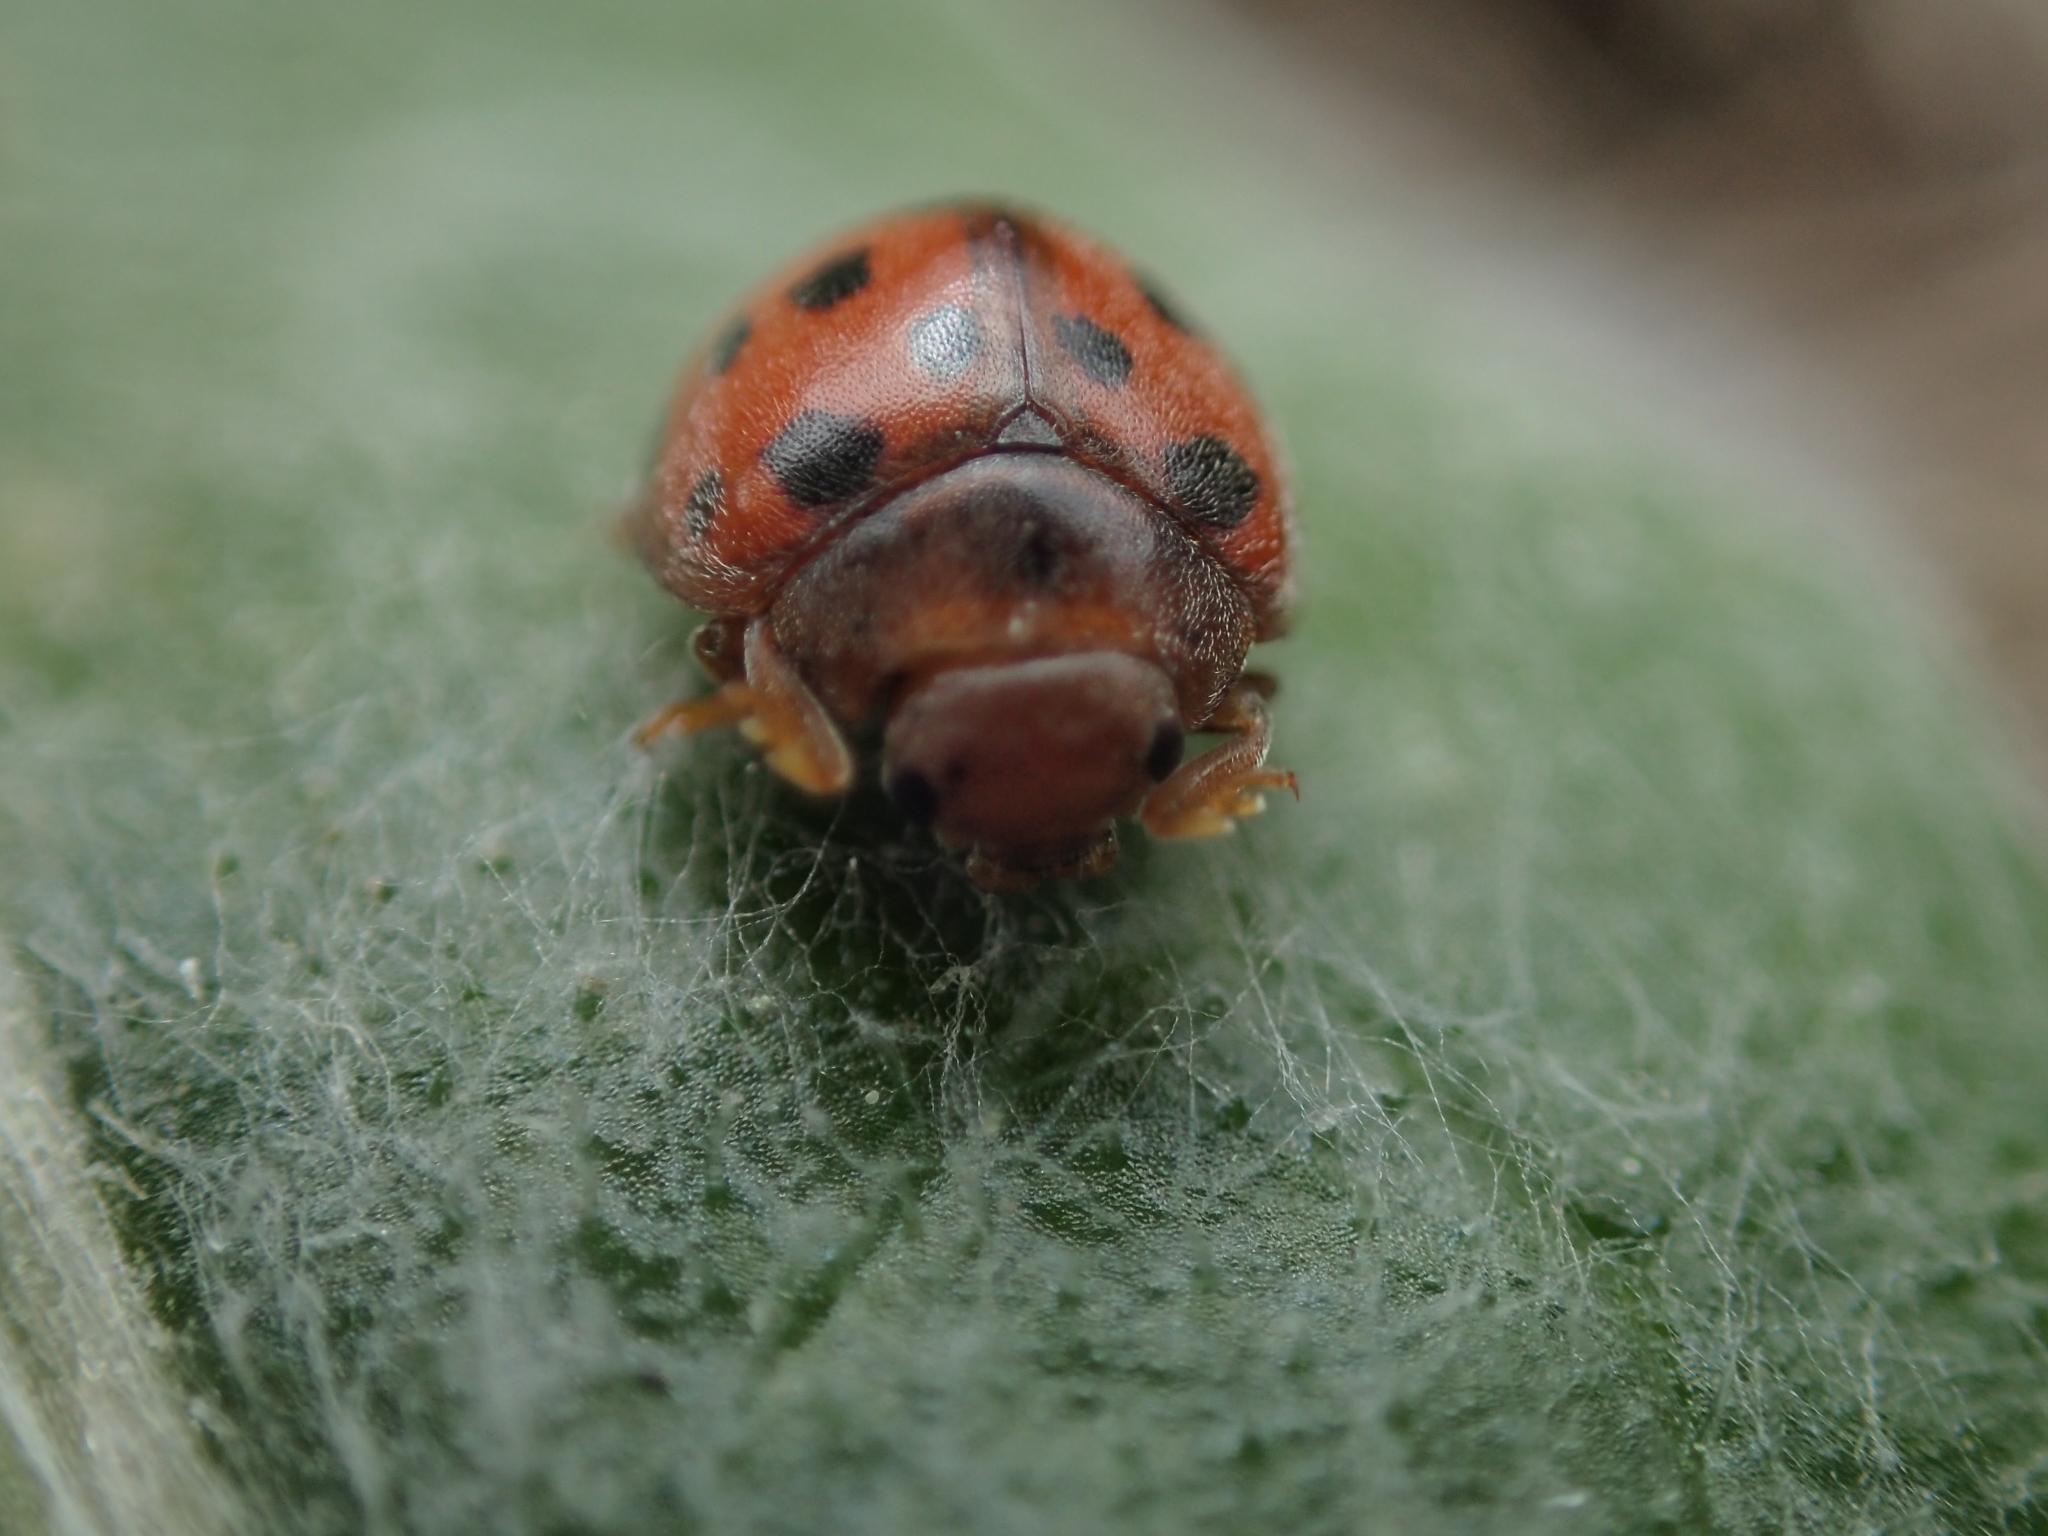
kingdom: Animalia
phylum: Arthropoda
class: Insecta
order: Coleoptera
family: Coccinellidae
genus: Subcoccinella
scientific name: Subcoccinella vigintiquatuorpunctata
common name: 24-spot ladybird
